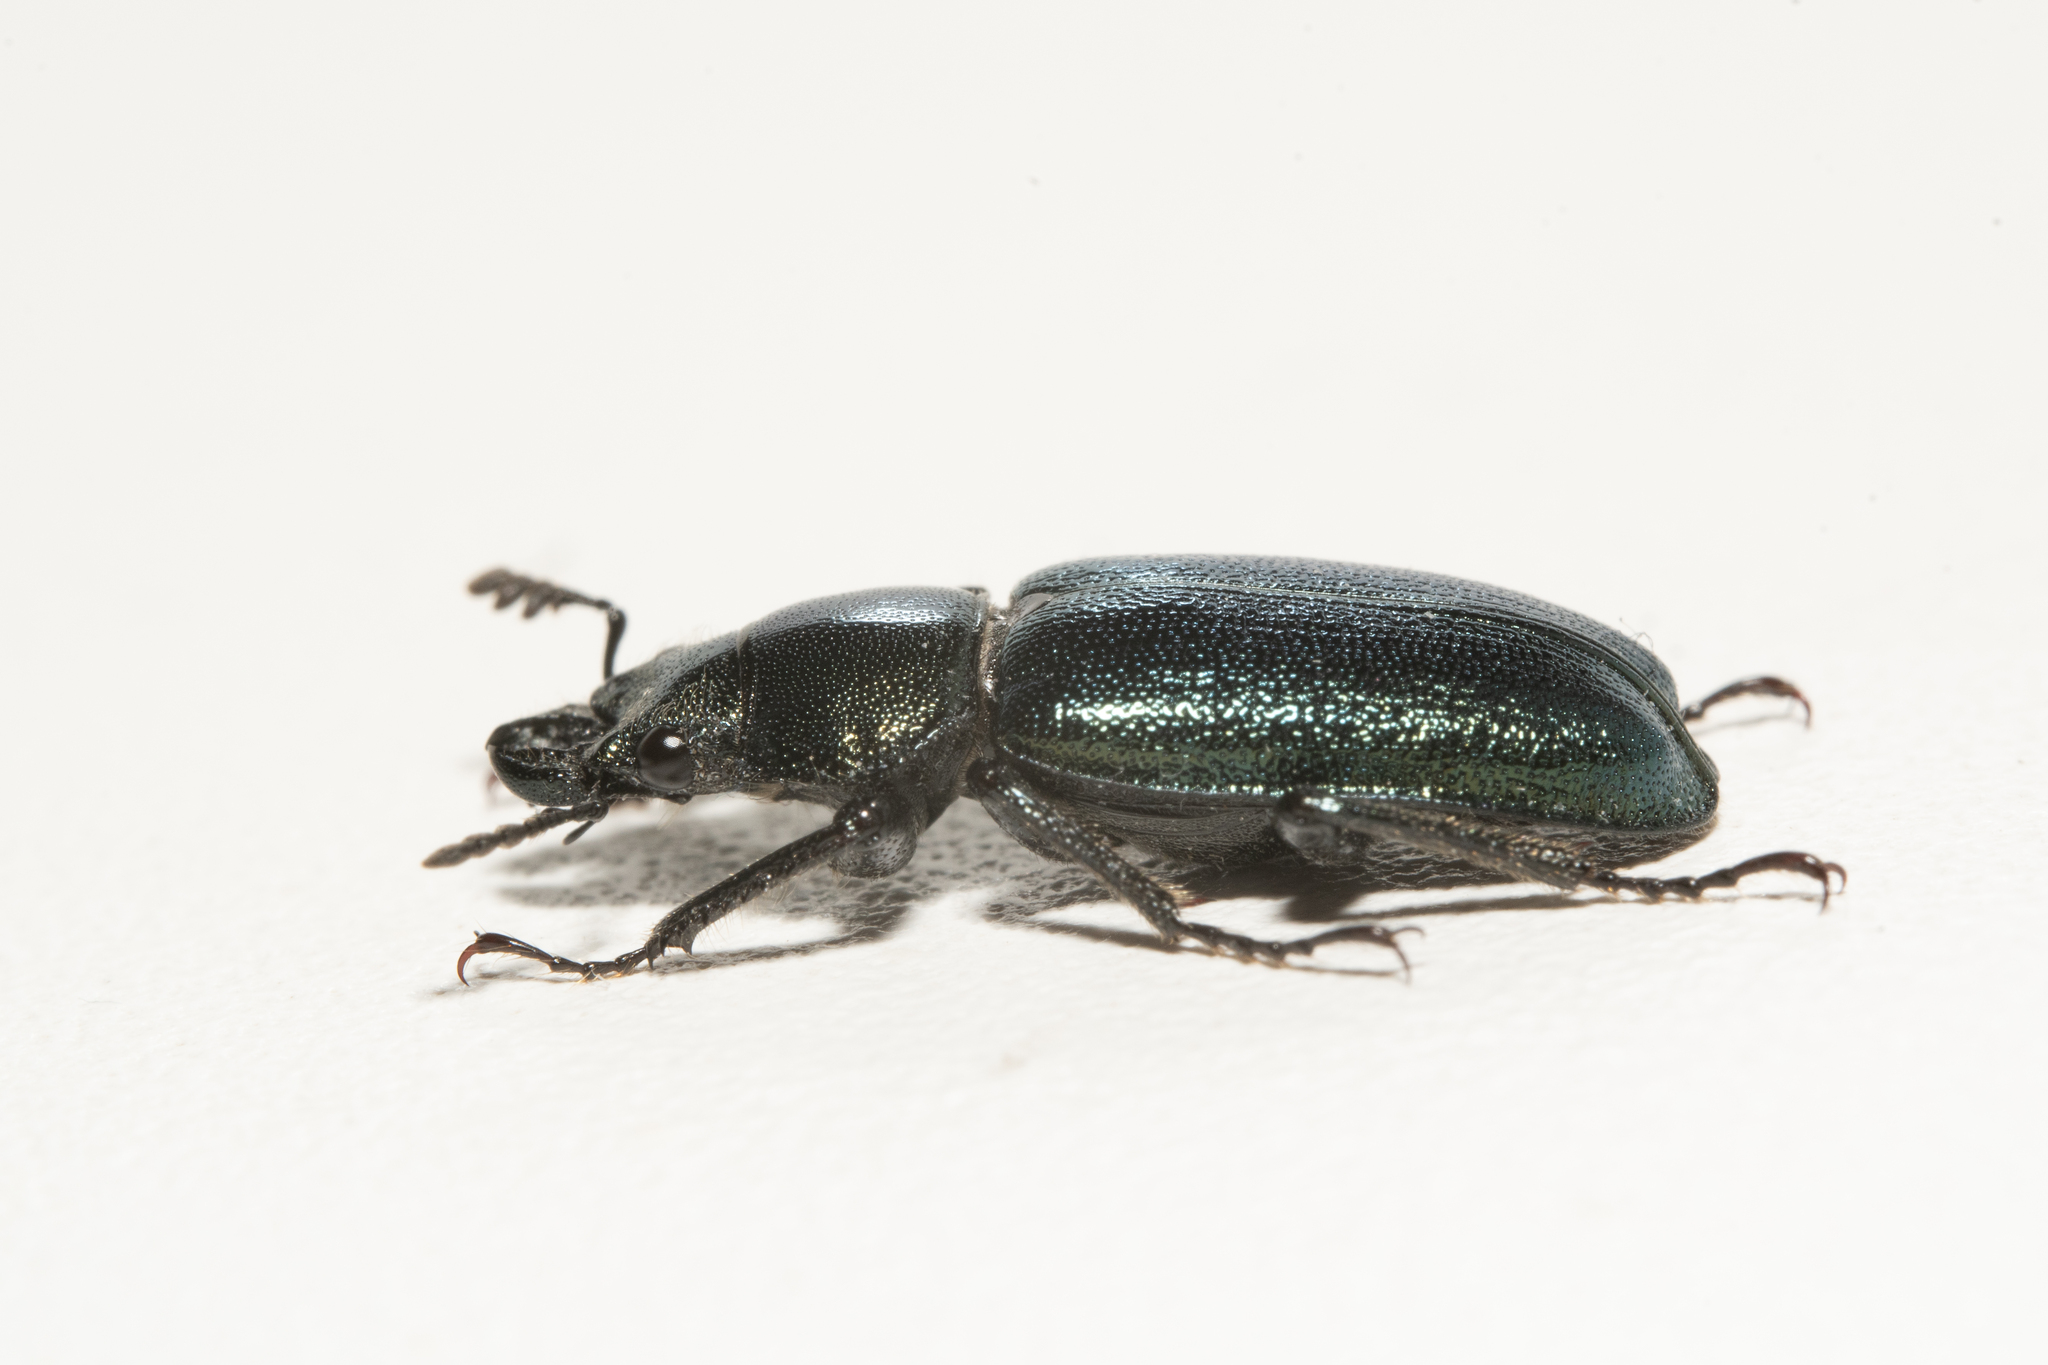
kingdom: Animalia
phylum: Arthropoda
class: Insecta
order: Coleoptera
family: Lucanidae
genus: Platycerus
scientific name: Platycerus caraboides
